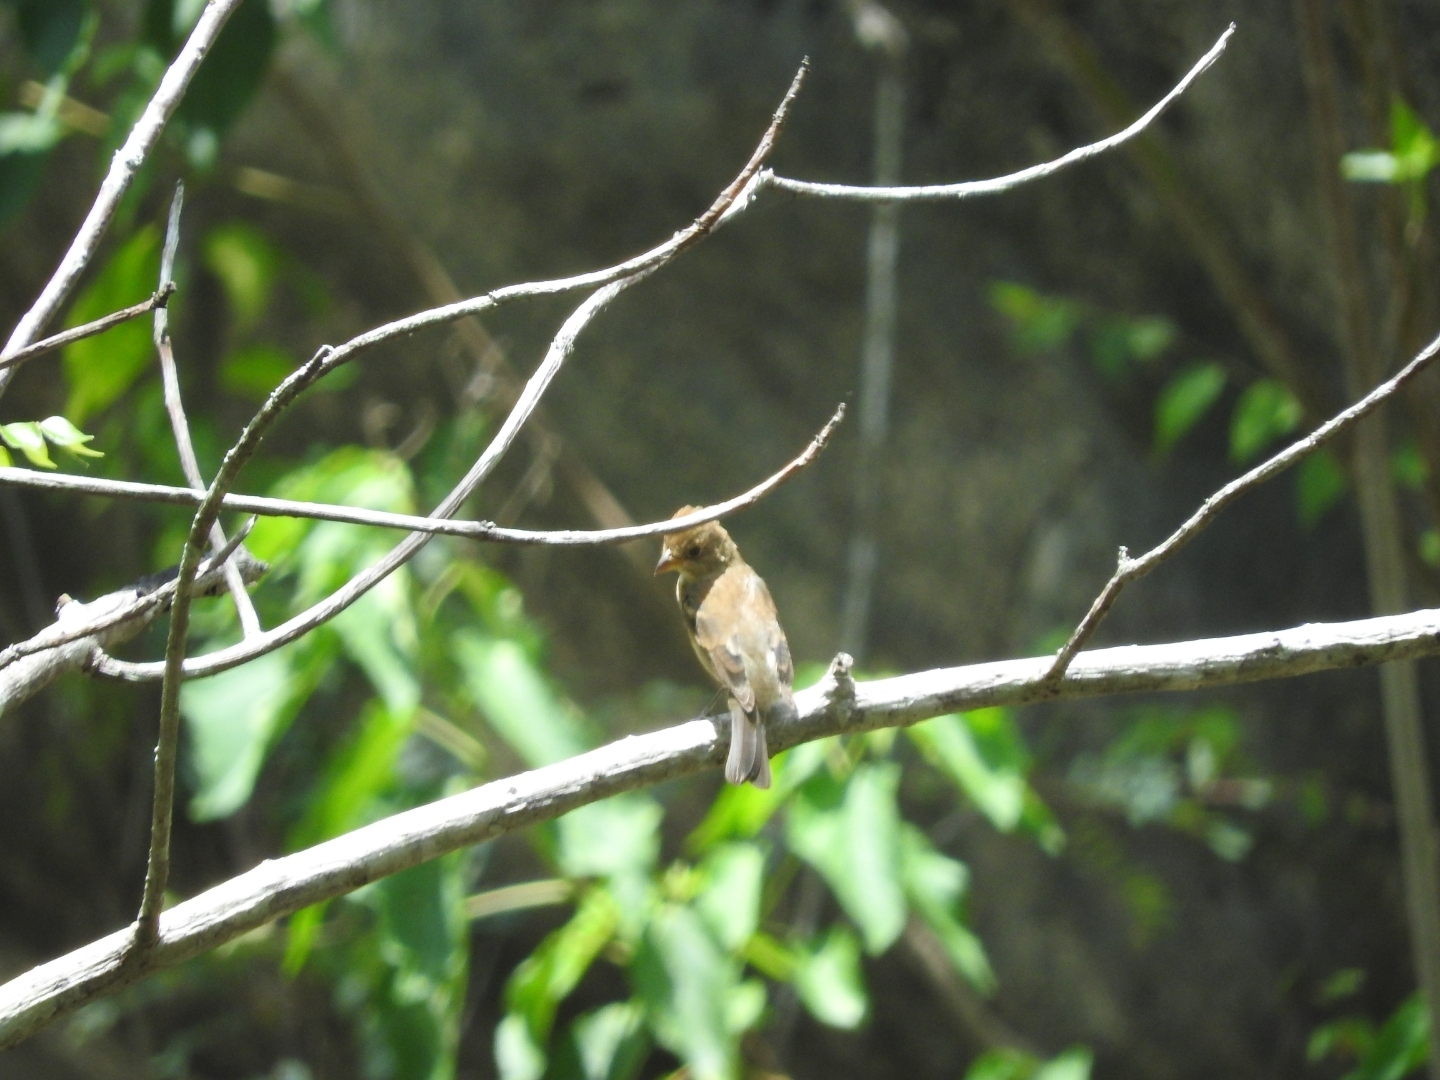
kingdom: Animalia
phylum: Chordata
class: Aves
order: Passeriformes
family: Cardinalidae
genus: Passerina
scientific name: Passerina cyanea
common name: Indigo bunting
